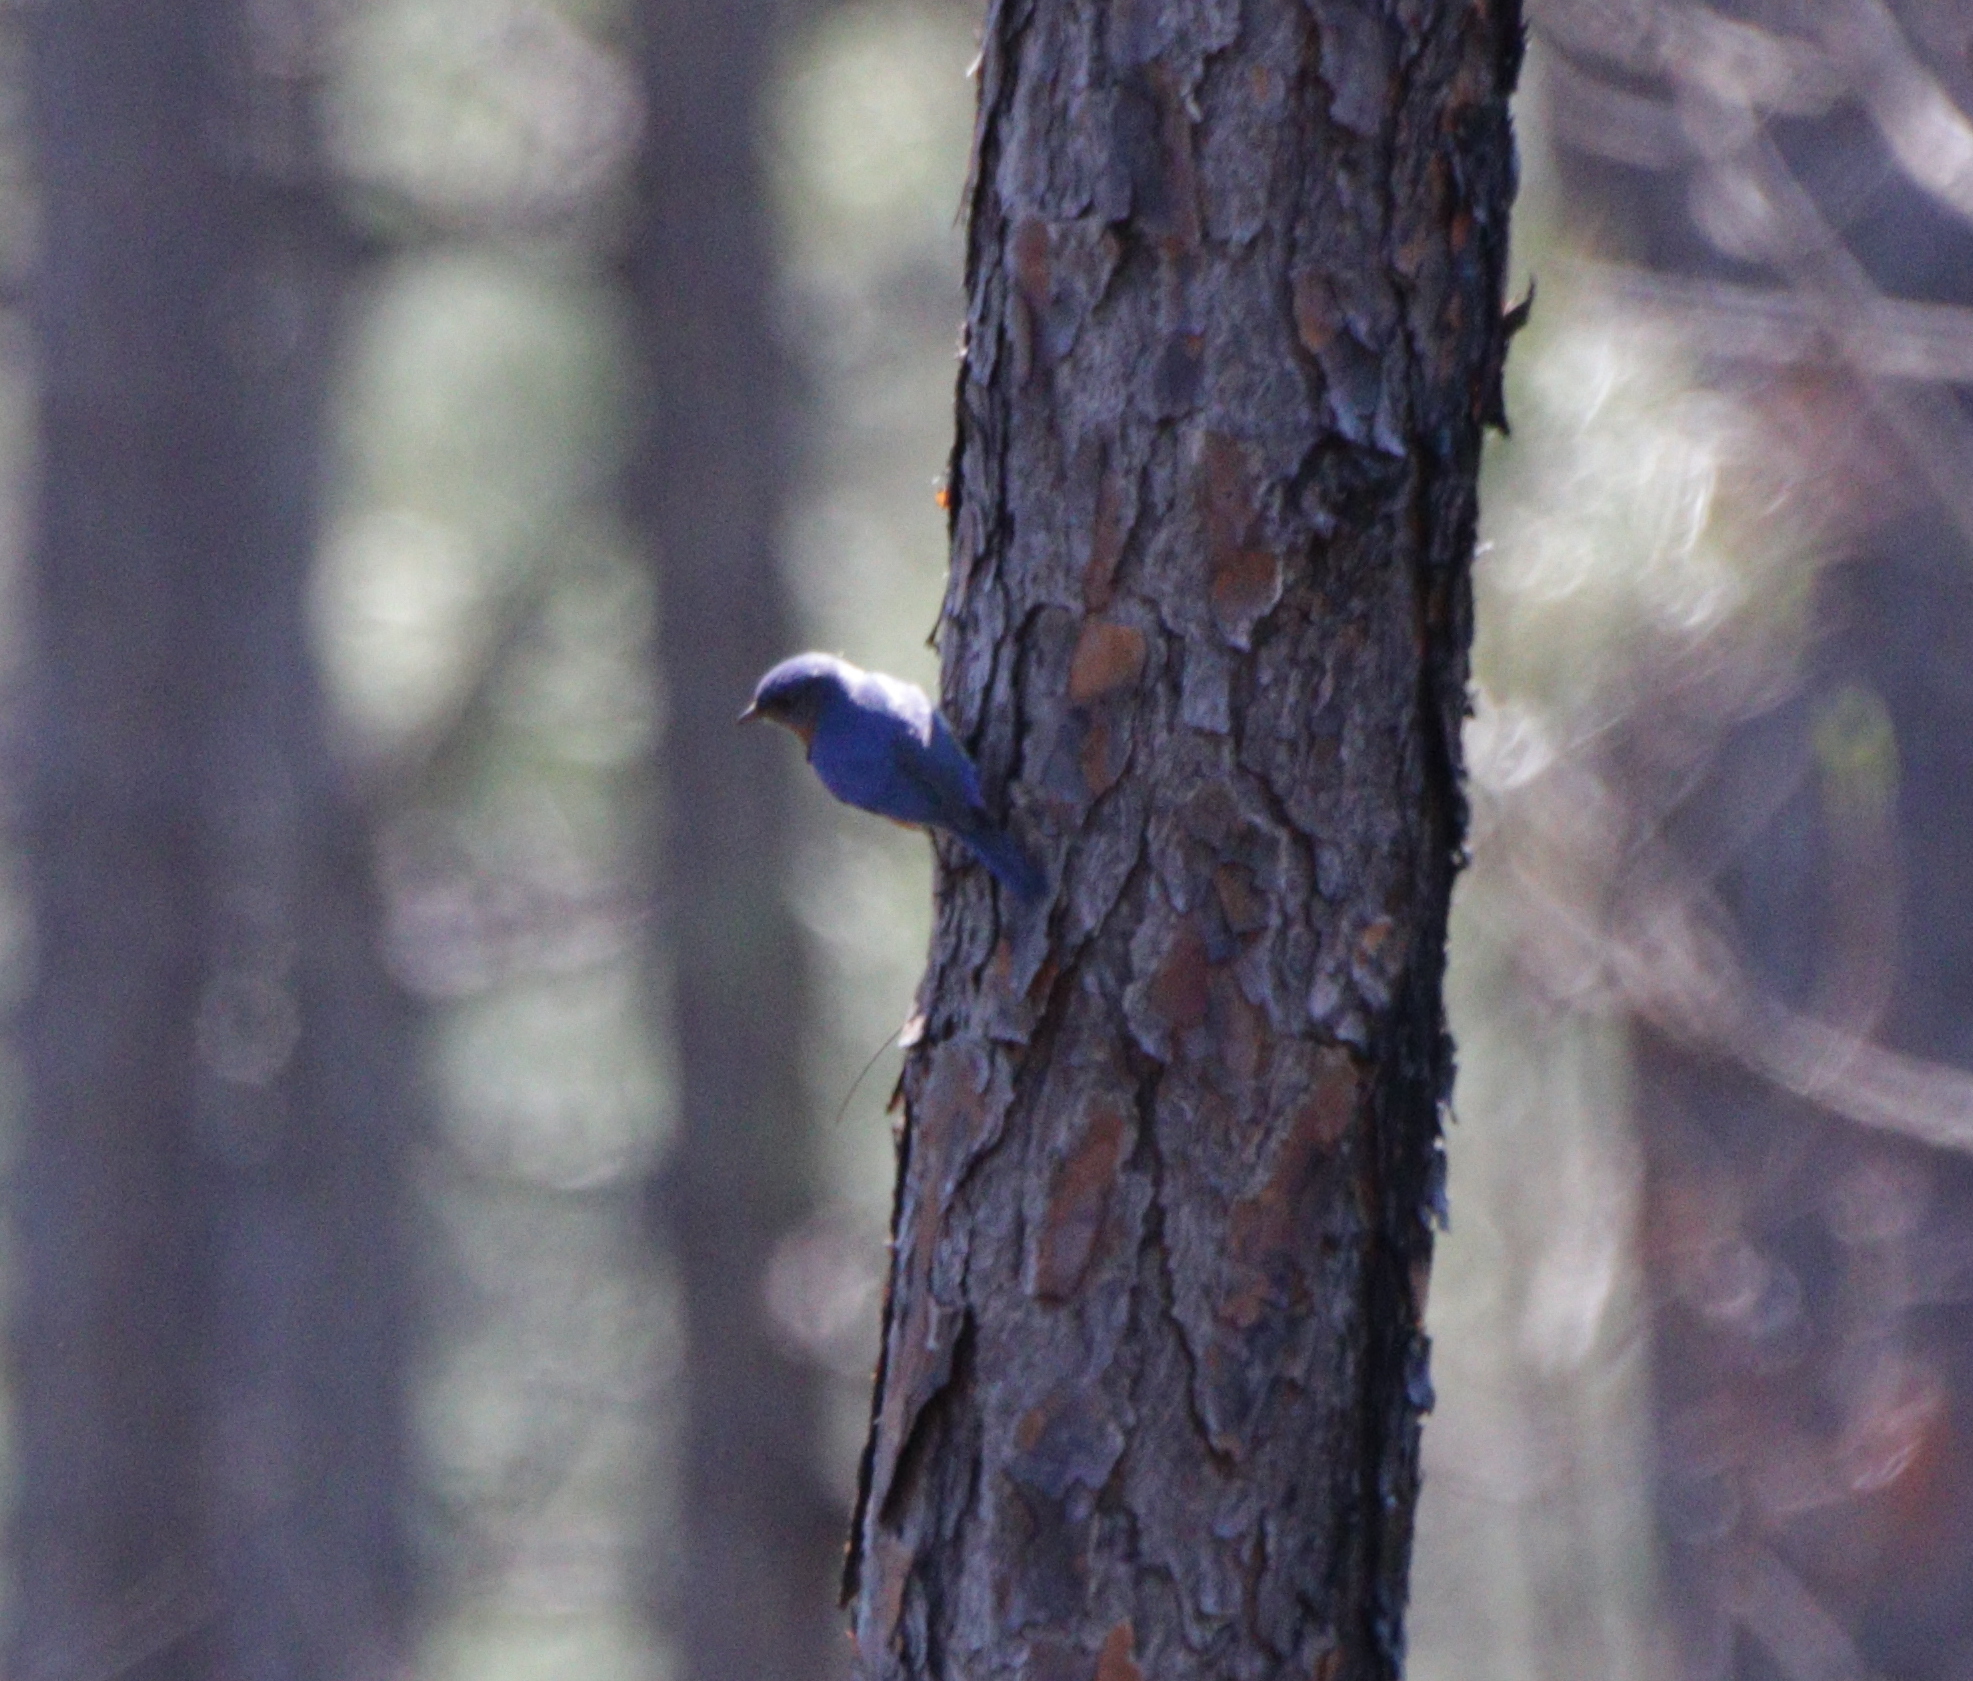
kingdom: Animalia
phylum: Chordata
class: Aves
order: Passeriformes
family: Turdidae
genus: Sialia
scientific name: Sialia sialis
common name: Eastern bluebird
